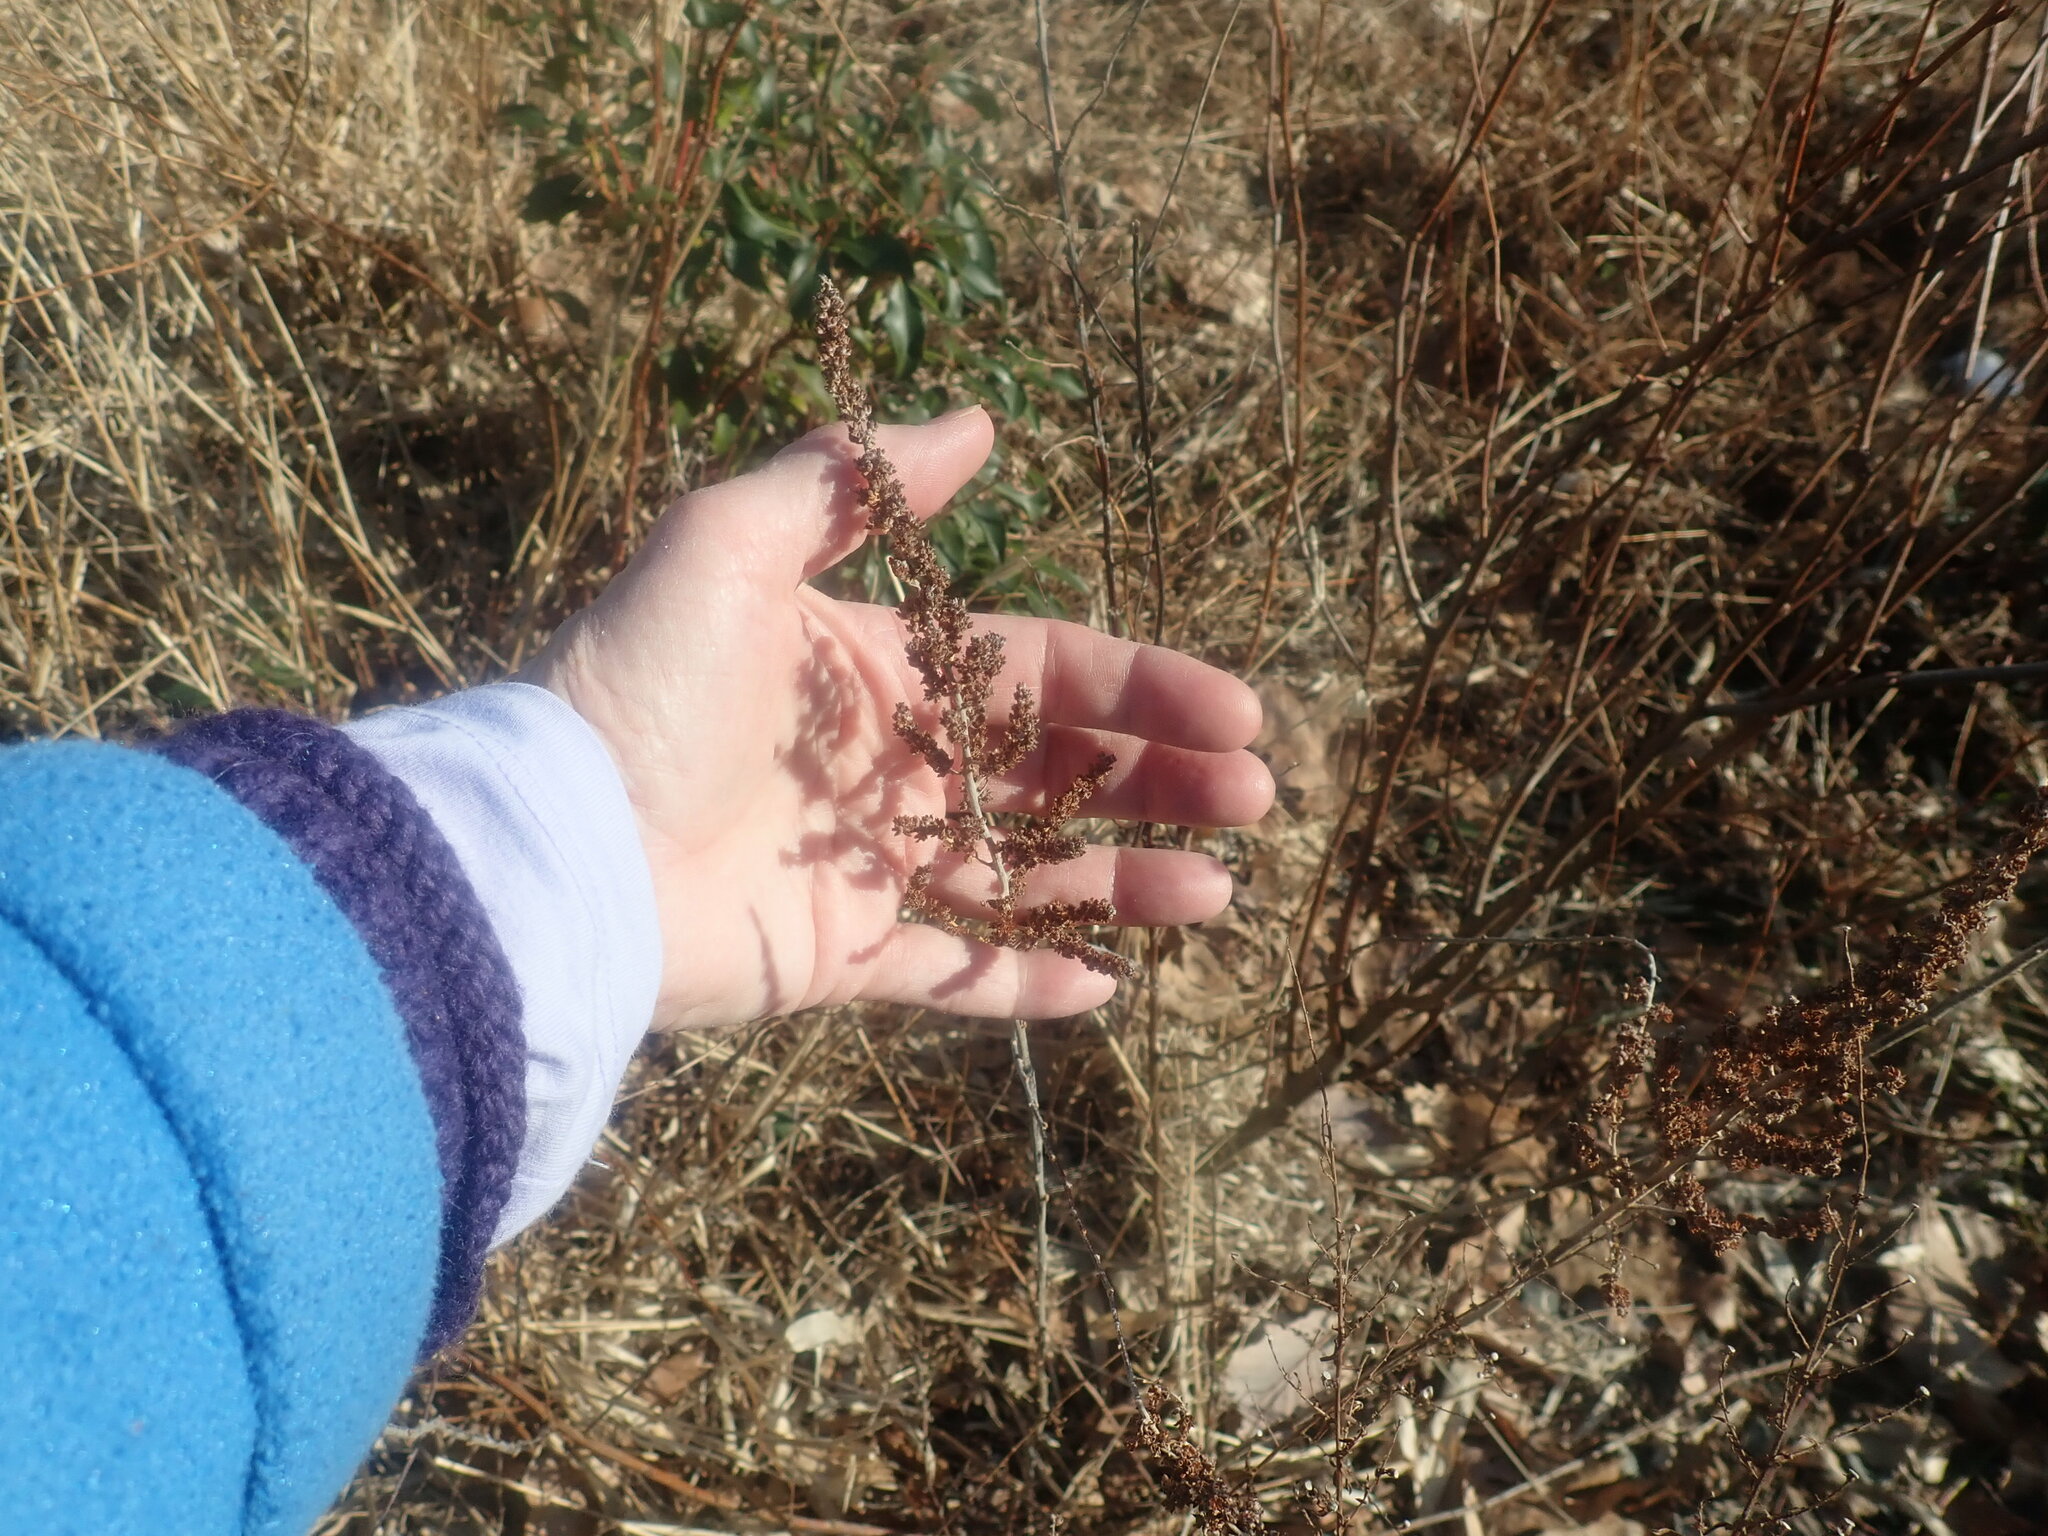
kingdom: Plantae
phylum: Tracheophyta
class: Magnoliopsida
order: Rosales
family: Rosaceae
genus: Spiraea
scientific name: Spiraea tomentosa
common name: Hardhack
